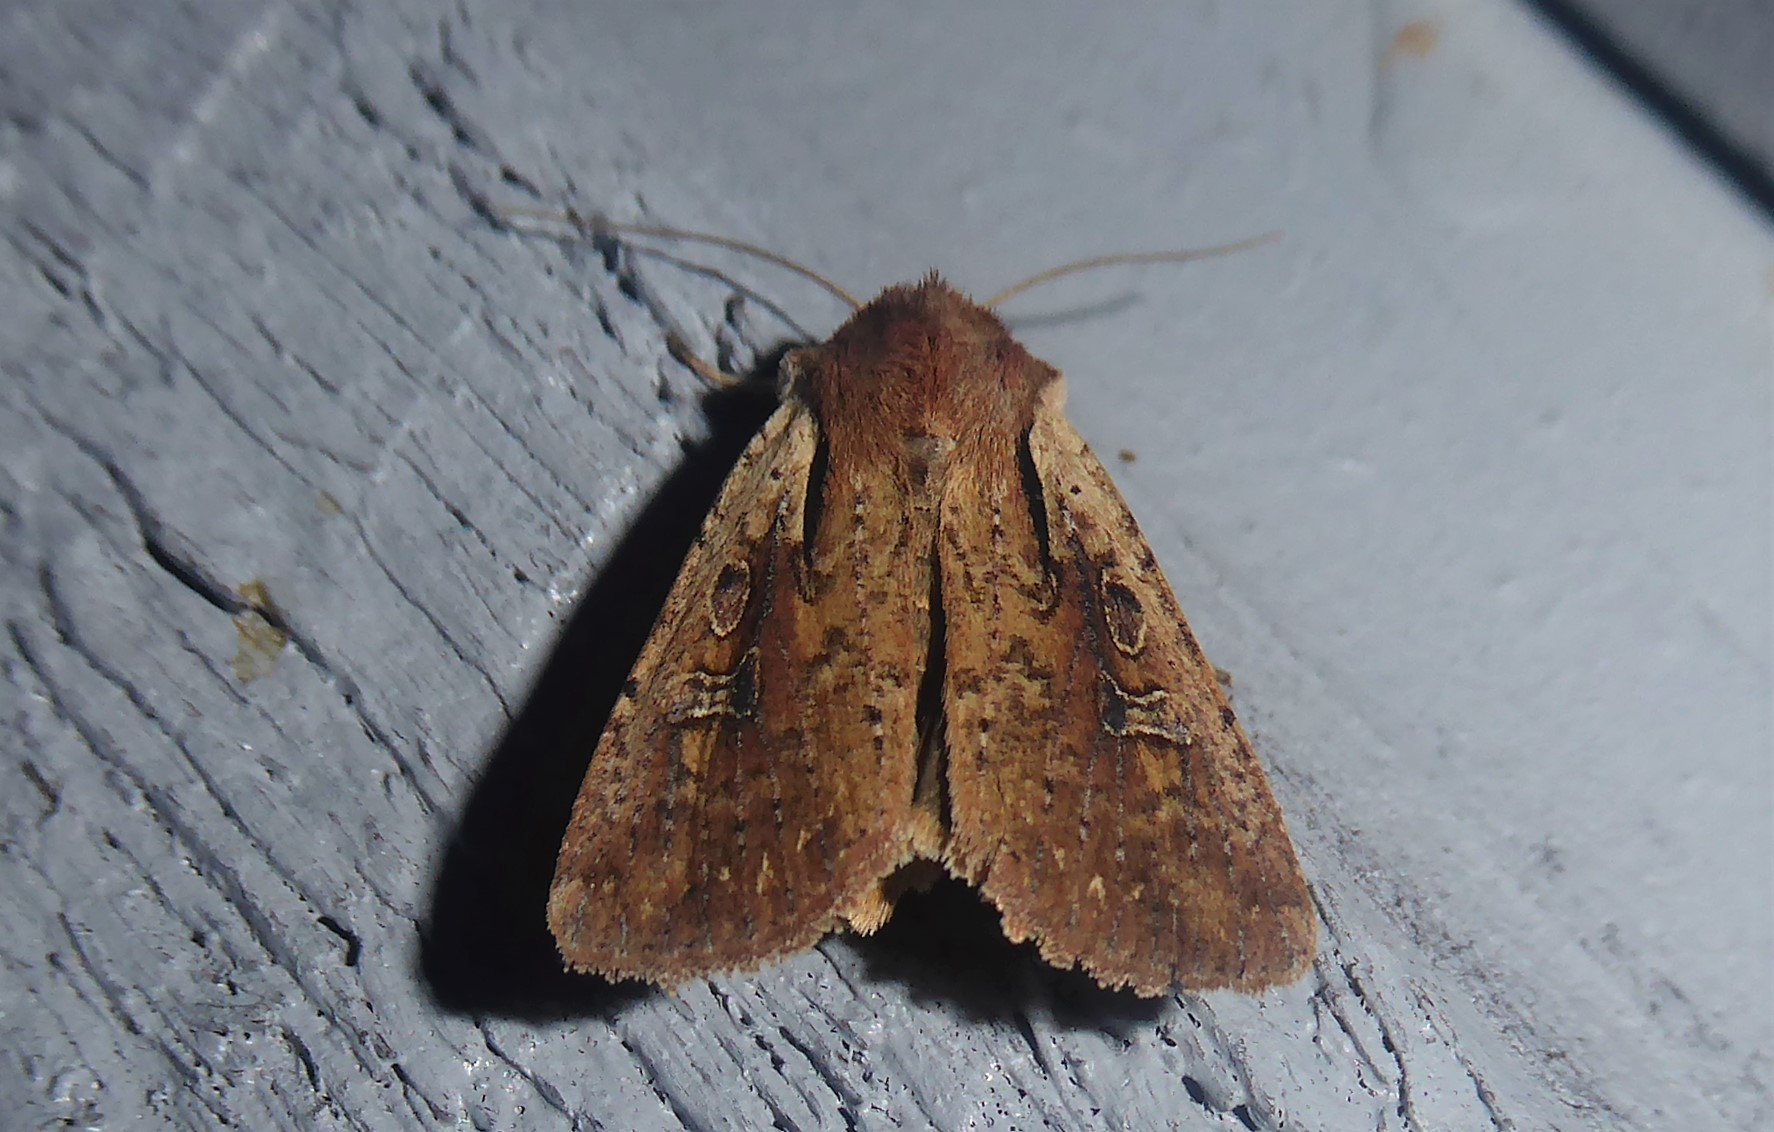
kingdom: Animalia
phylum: Arthropoda
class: Insecta
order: Lepidoptera
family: Noctuidae
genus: Ichneutica
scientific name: Ichneutica atristriga
